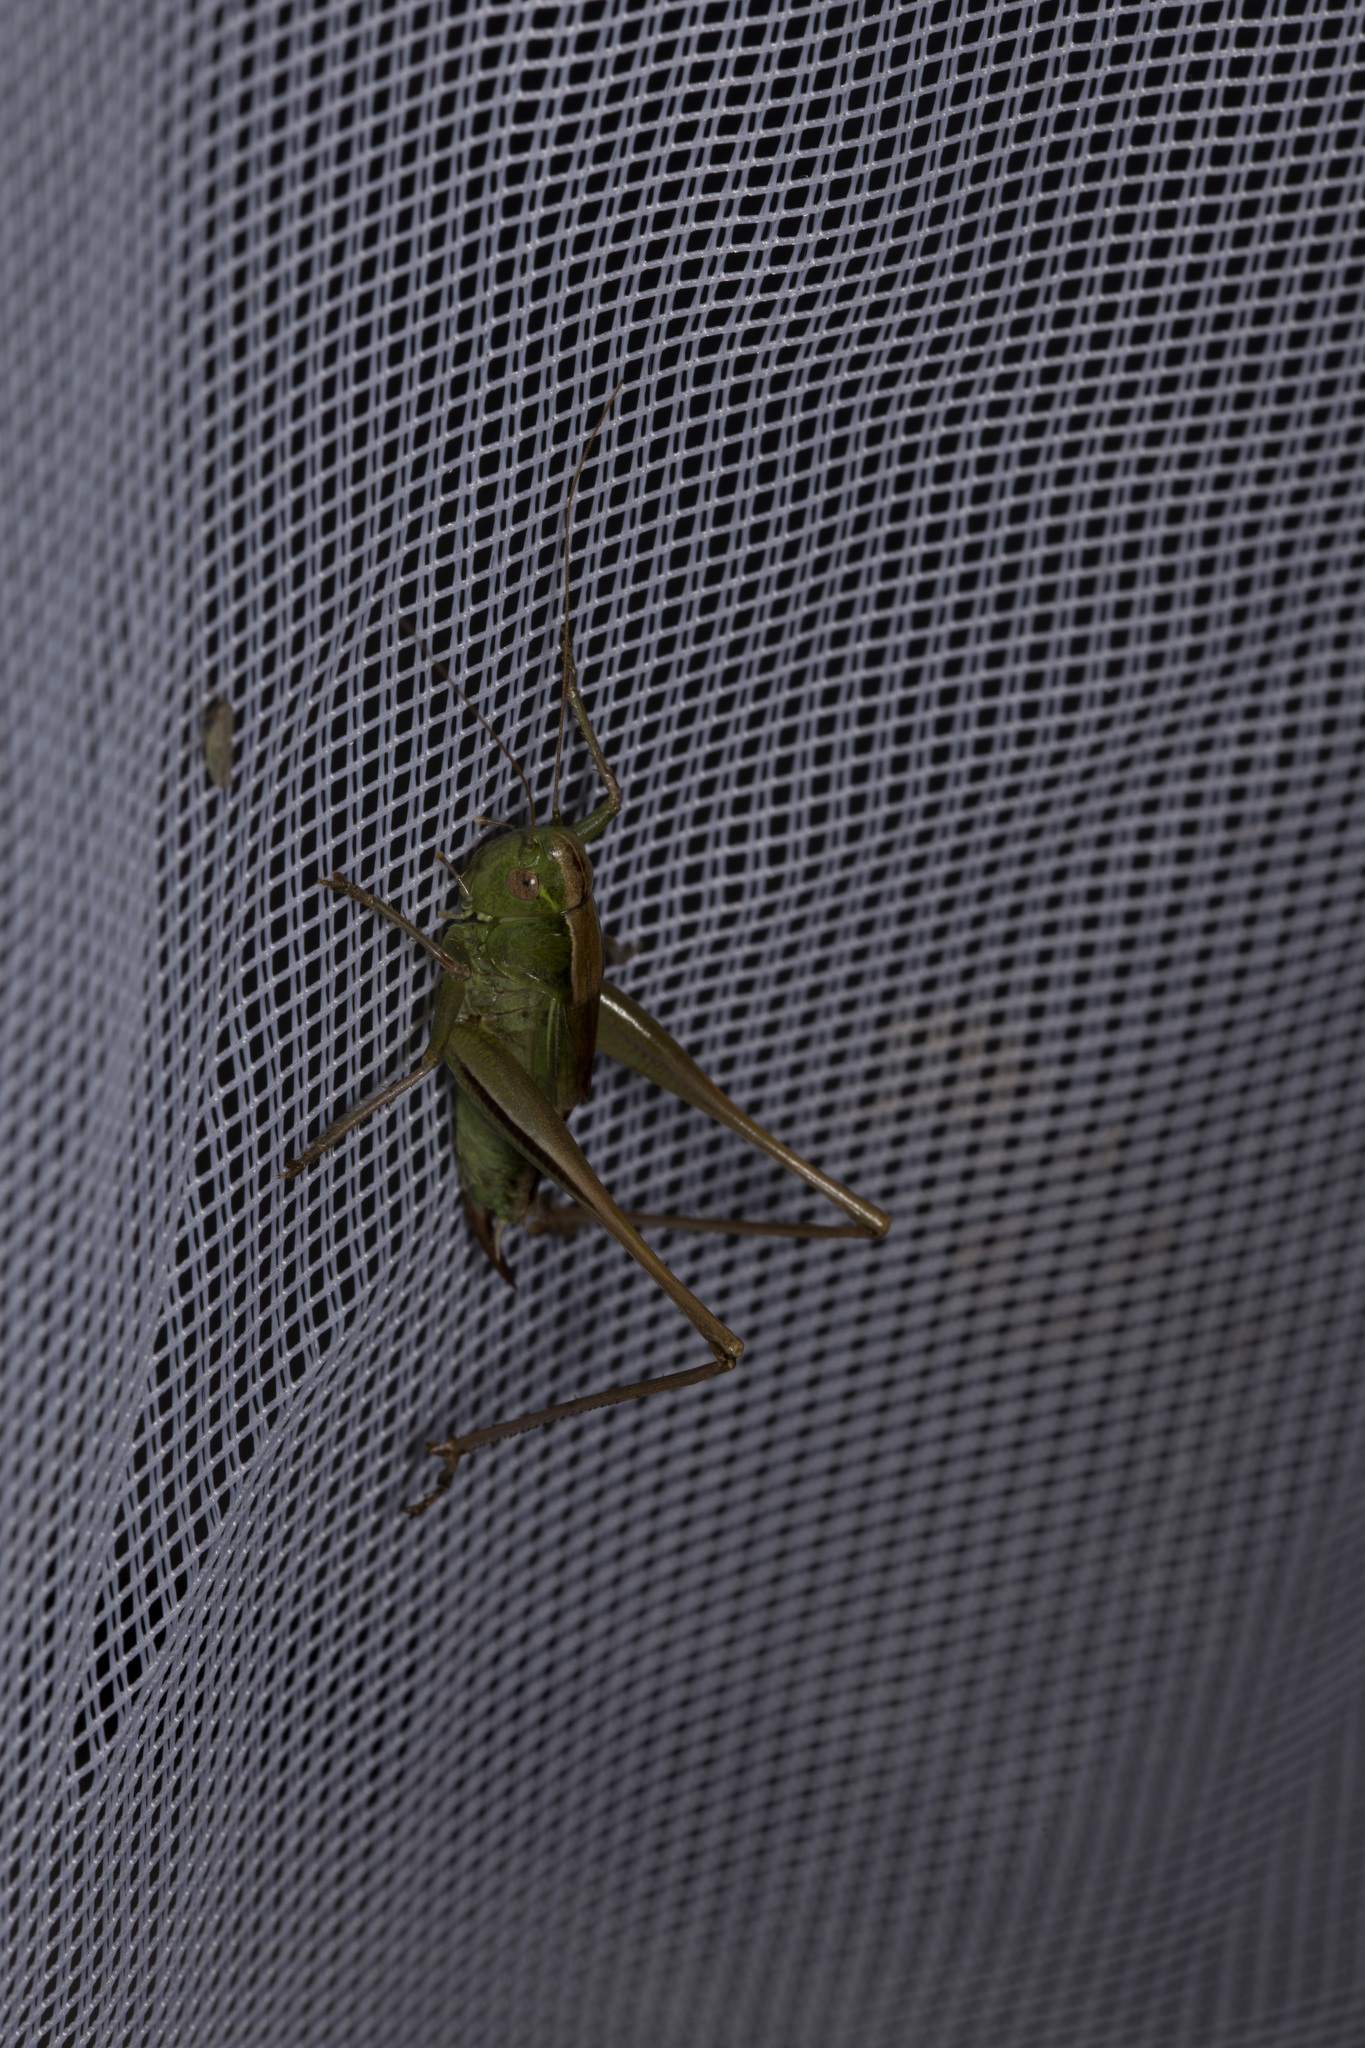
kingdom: Animalia
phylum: Arthropoda
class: Insecta
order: Orthoptera
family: Tettigoniidae
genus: Bicolorana
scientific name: Bicolorana bicolor
